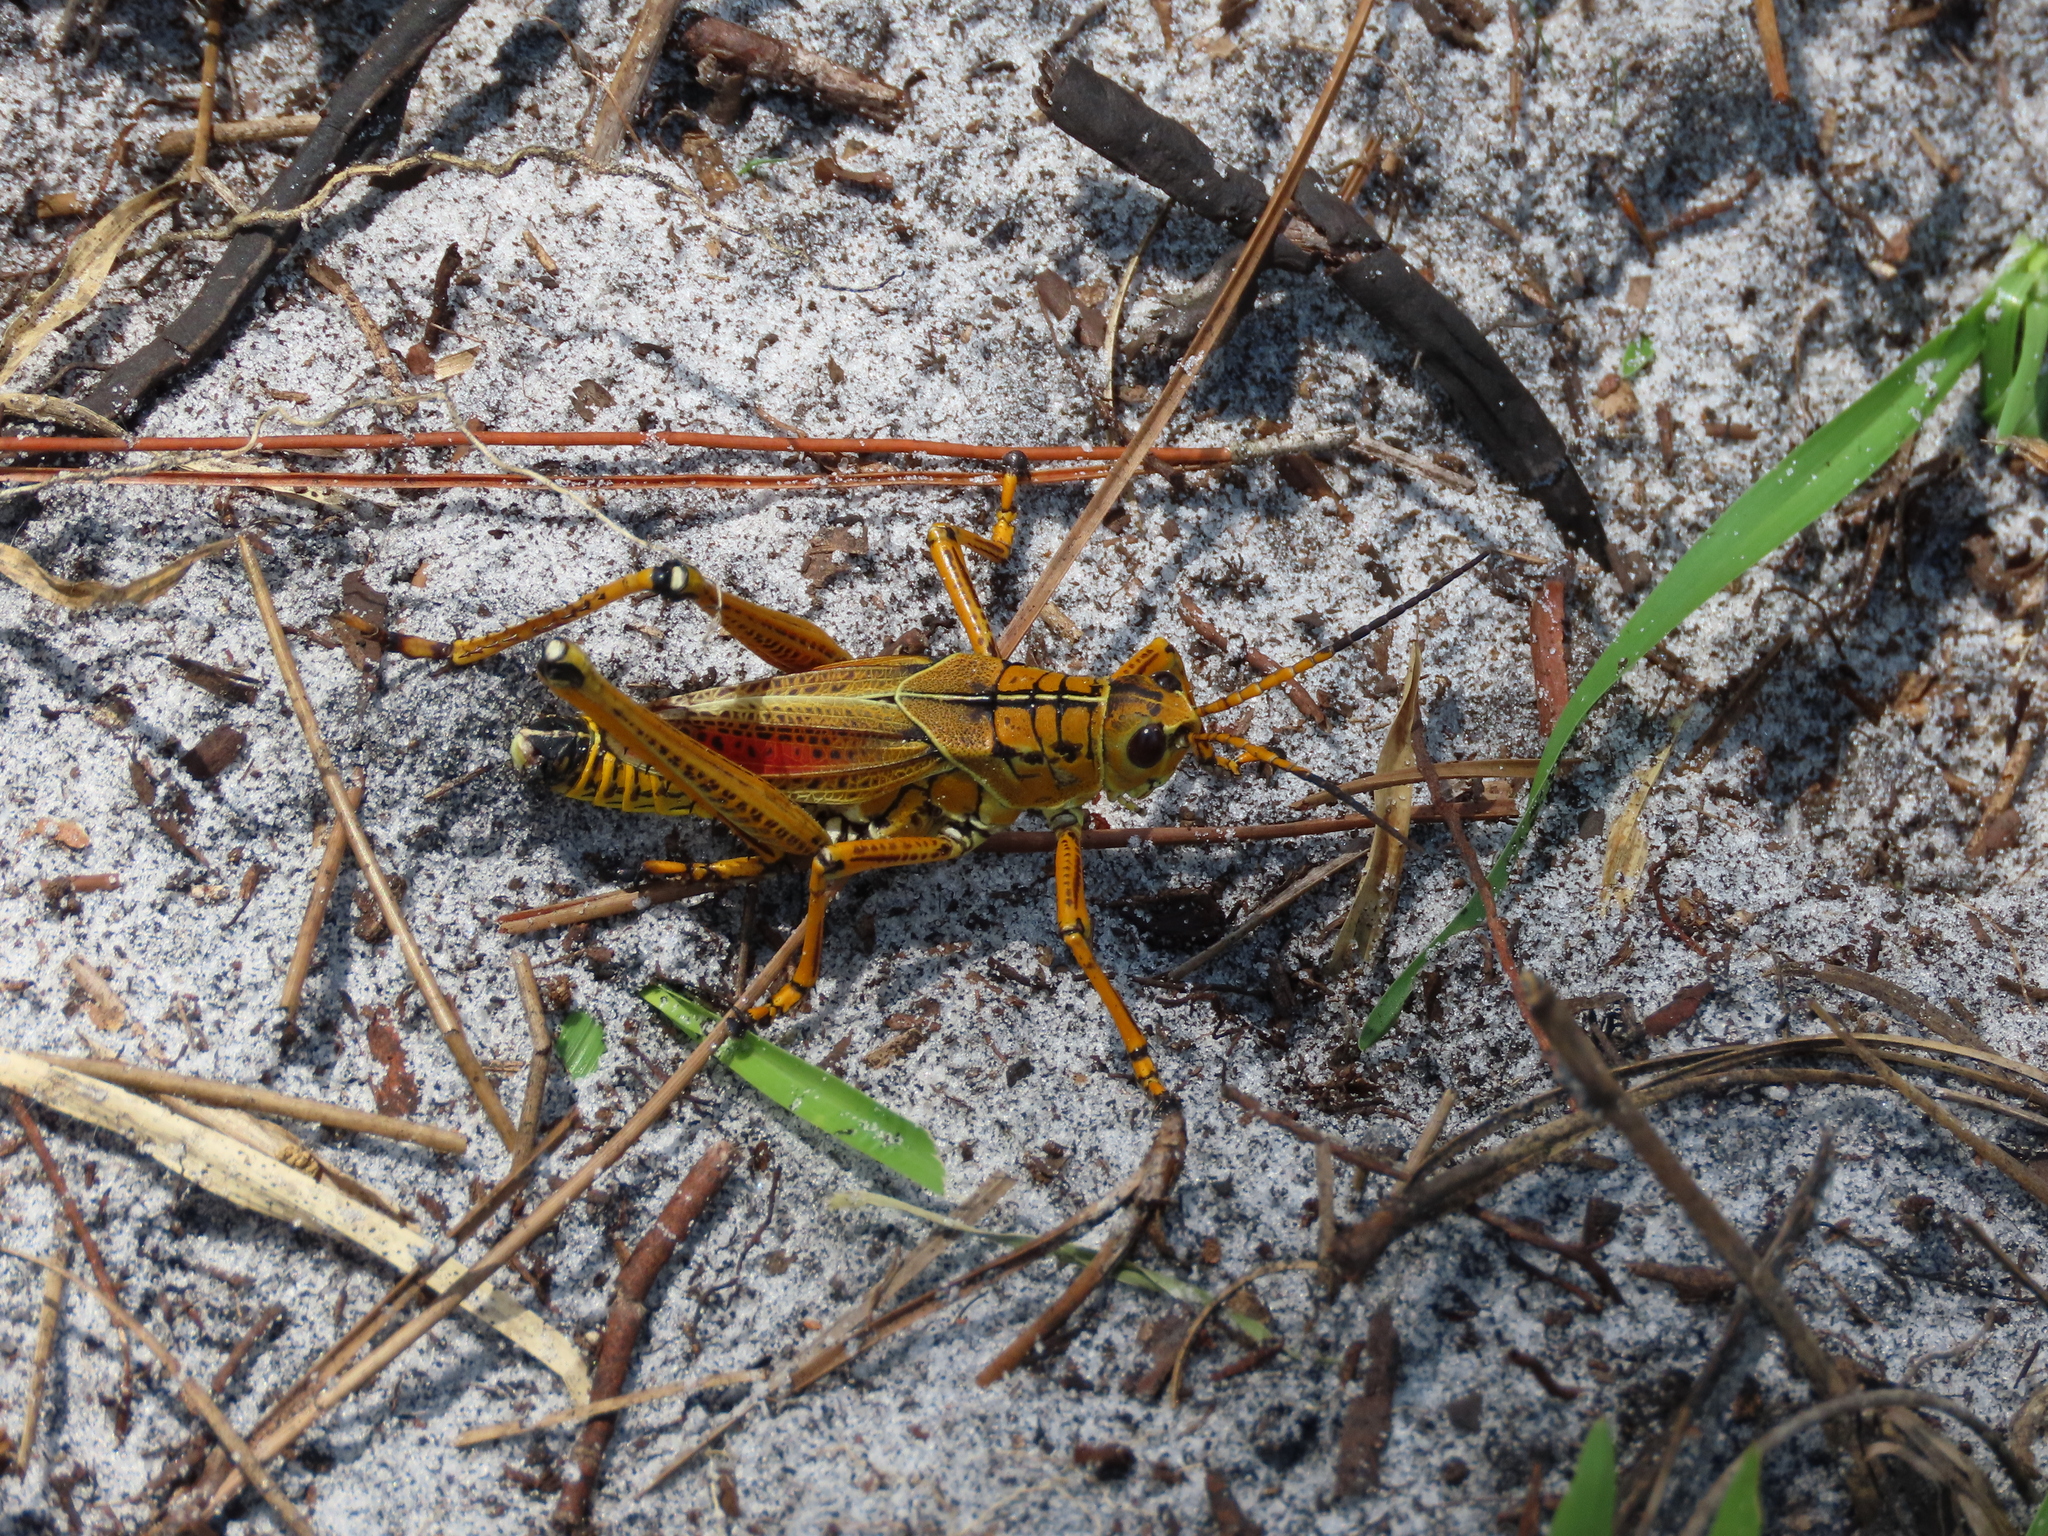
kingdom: Animalia
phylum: Arthropoda
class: Insecta
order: Orthoptera
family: Romaleidae
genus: Romalea
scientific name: Romalea microptera
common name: Eastern lubber grasshopper
